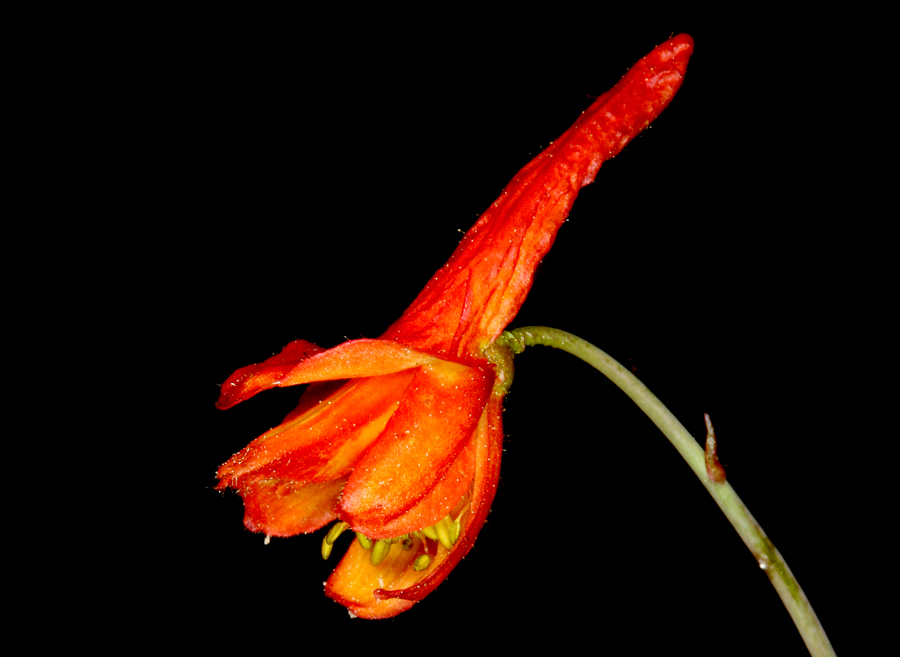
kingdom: Plantae
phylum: Tracheophyta
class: Magnoliopsida
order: Ranunculales
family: Ranunculaceae
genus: Delphinium
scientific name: Delphinium nudicaule
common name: Red larkspur
